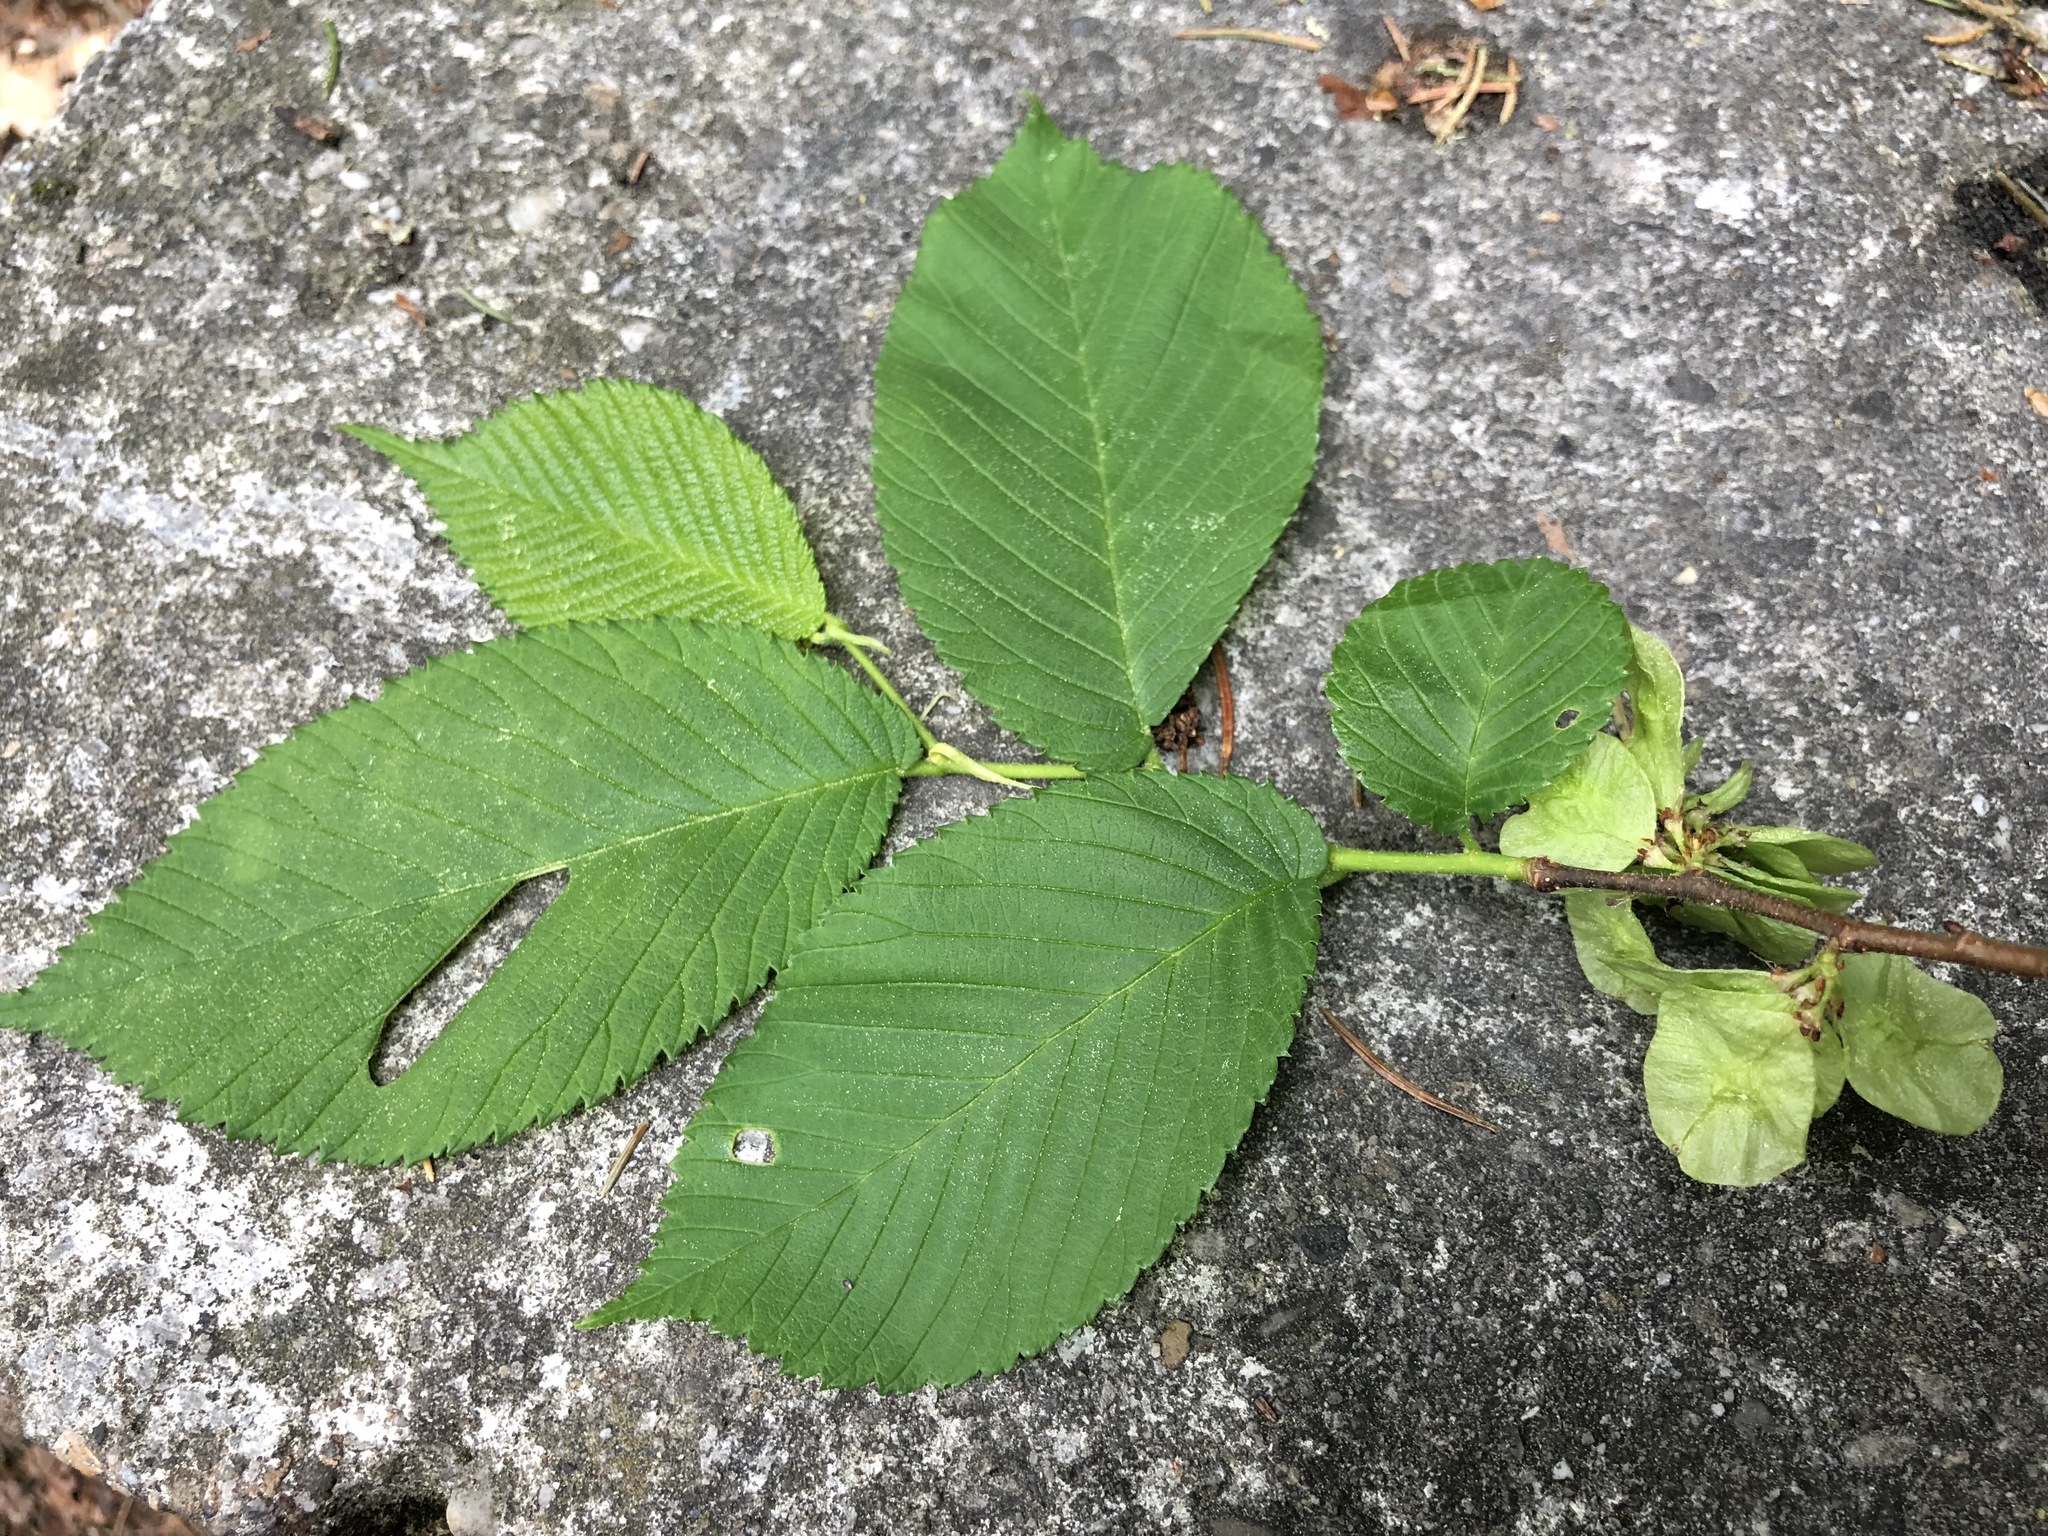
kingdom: Plantae
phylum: Tracheophyta
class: Magnoliopsida
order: Rosales
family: Ulmaceae
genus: Ulmus
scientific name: Ulmus glabra
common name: Wych elm
